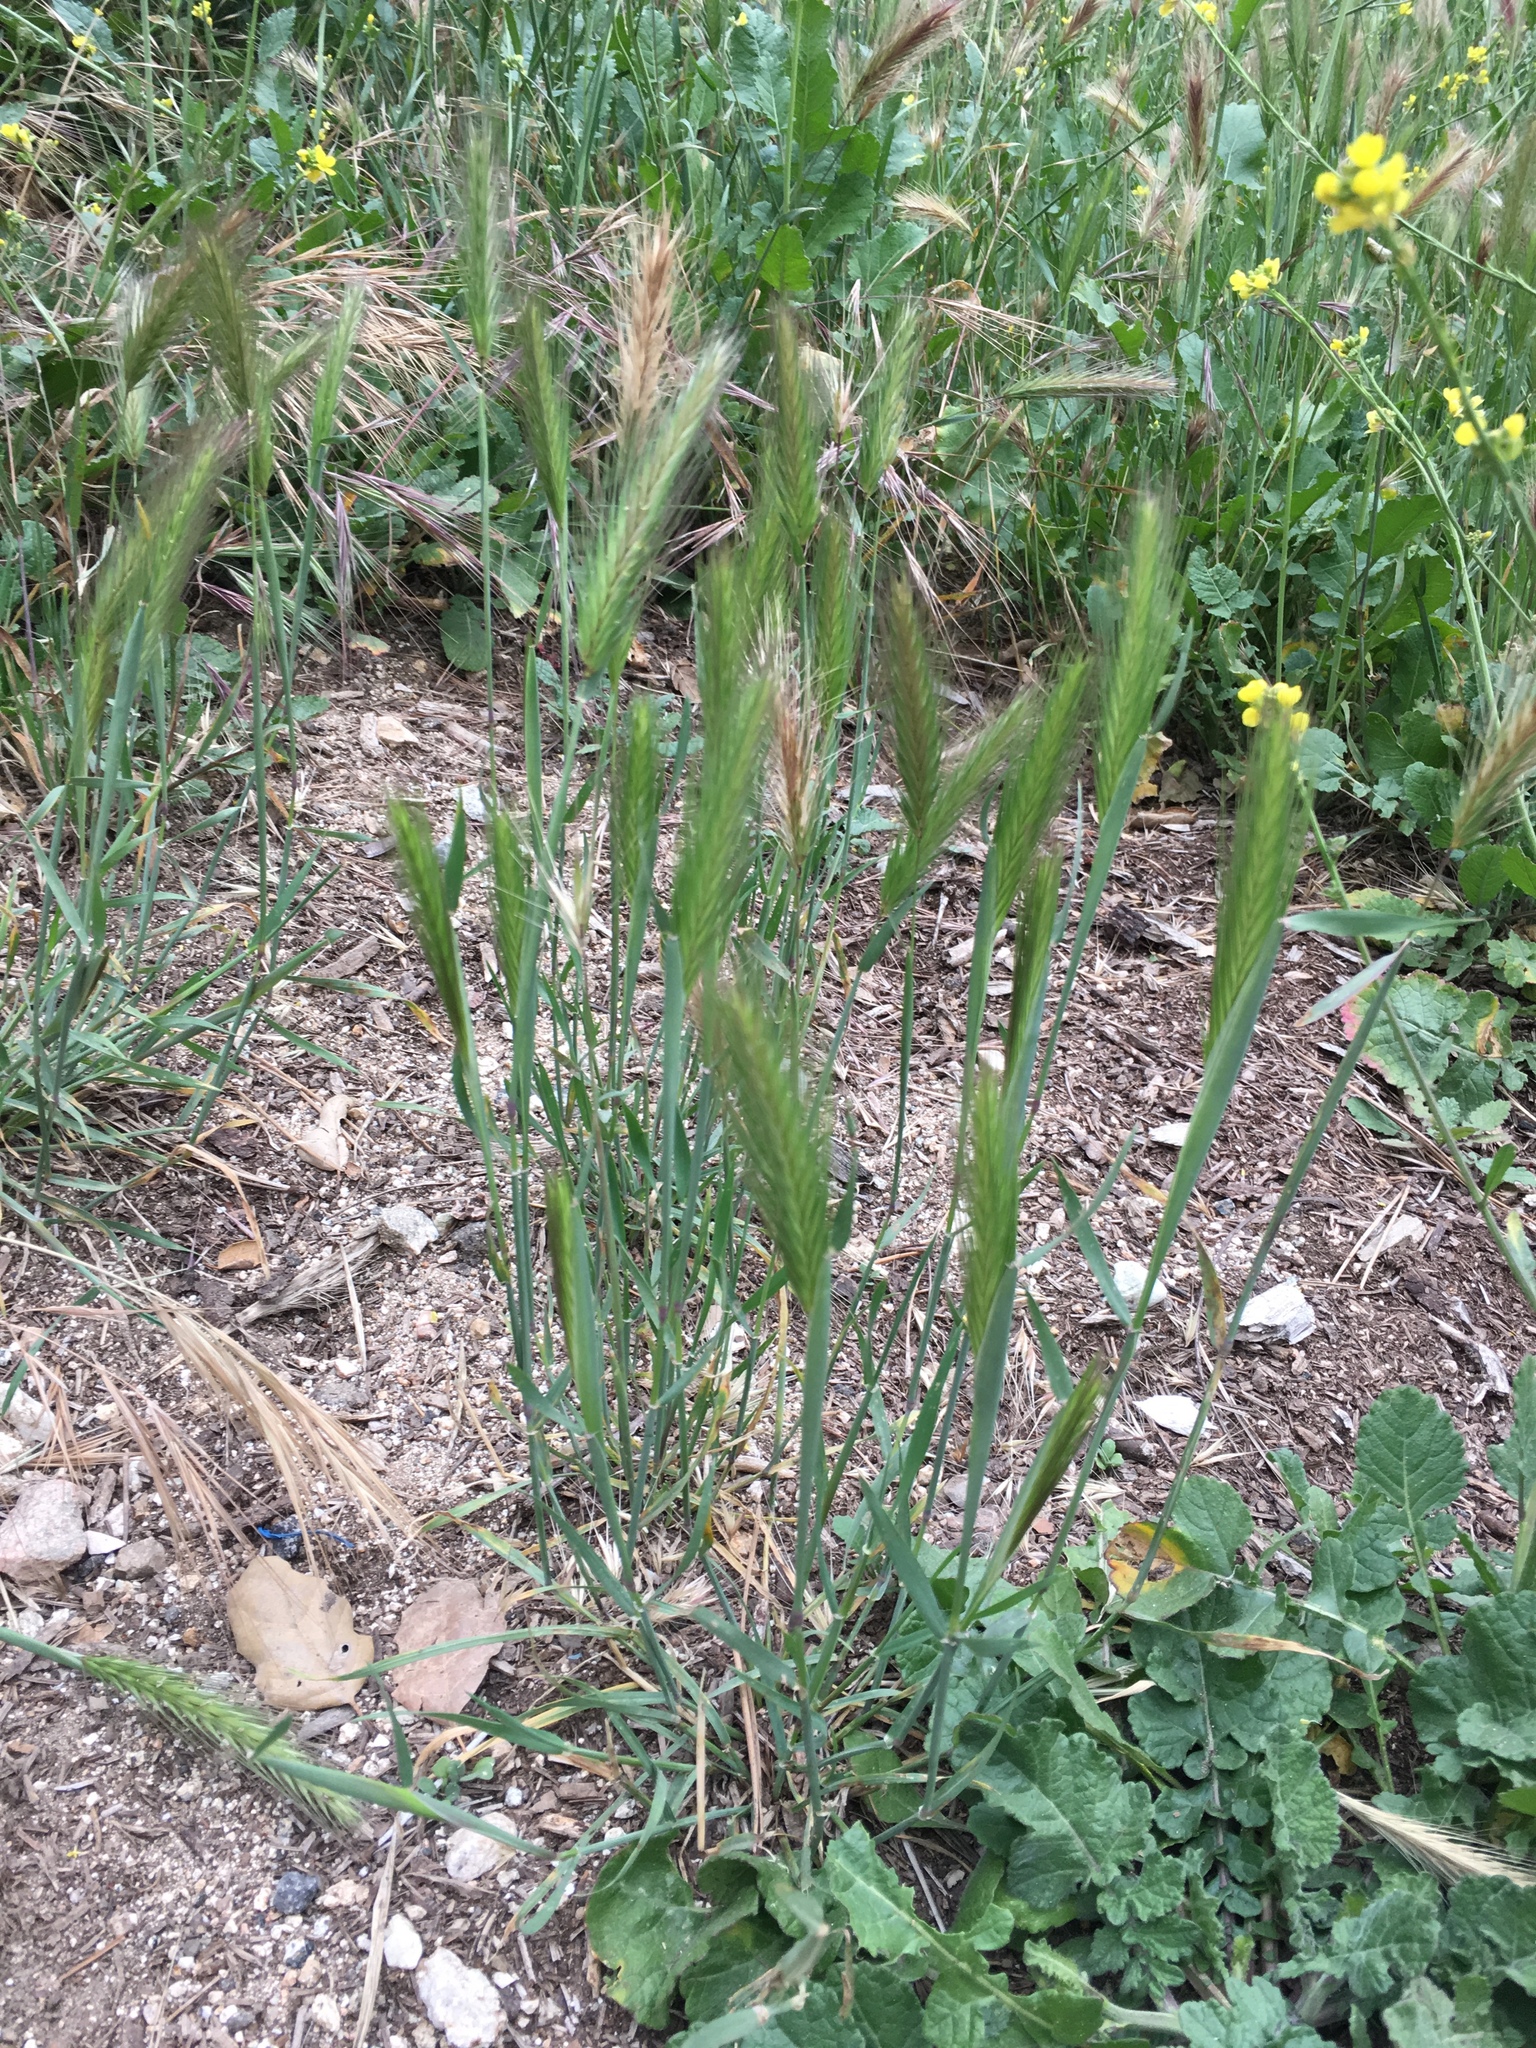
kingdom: Plantae
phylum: Tracheophyta
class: Liliopsida
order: Poales
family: Poaceae
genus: Hordeum
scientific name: Hordeum murinum
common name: Wall barley
